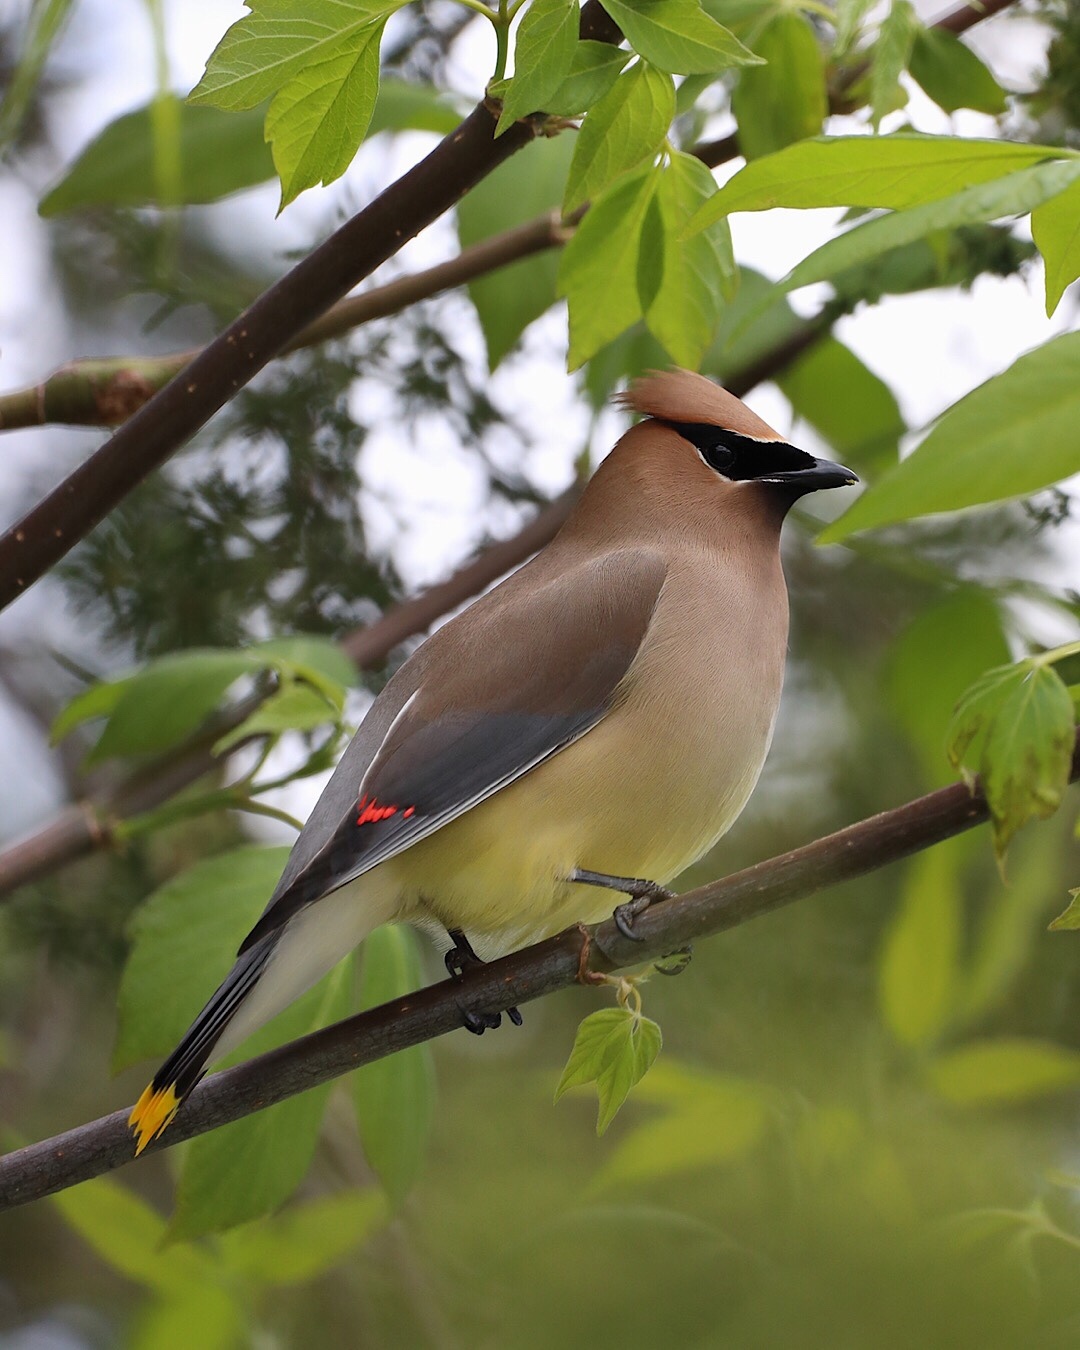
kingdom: Animalia
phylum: Chordata
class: Aves
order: Passeriformes
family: Bombycillidae
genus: Bombycilla
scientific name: Bombycilla cedrorum
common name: Cedar waxwing
